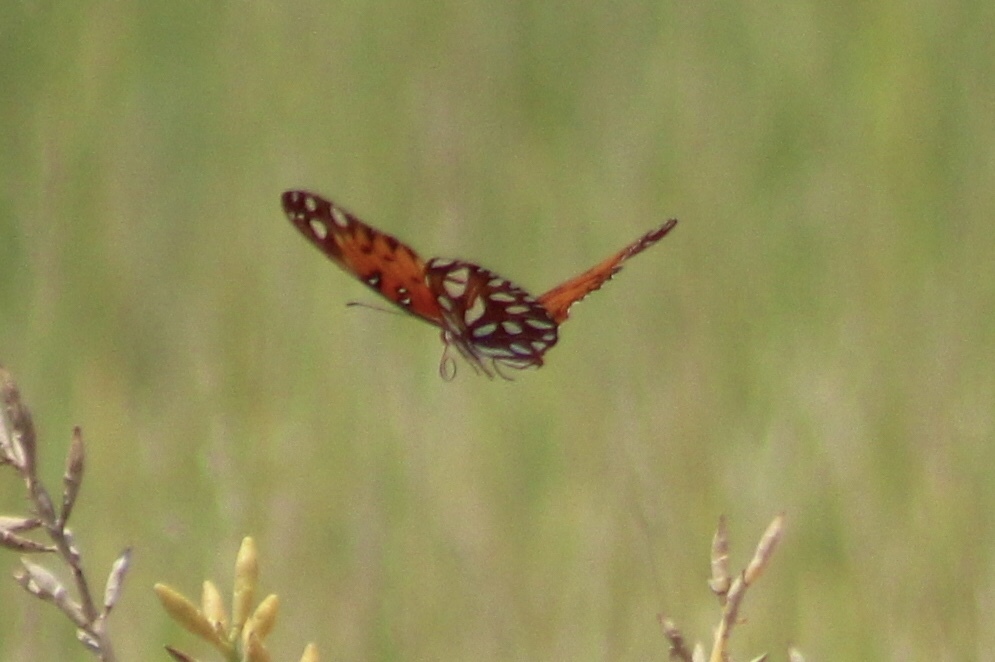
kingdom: Animalia
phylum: Arthropoda
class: Insecta
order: Lepidoptera
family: Nymphalidae
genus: Dione
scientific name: Dione vanillae
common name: Gulf fritillary
